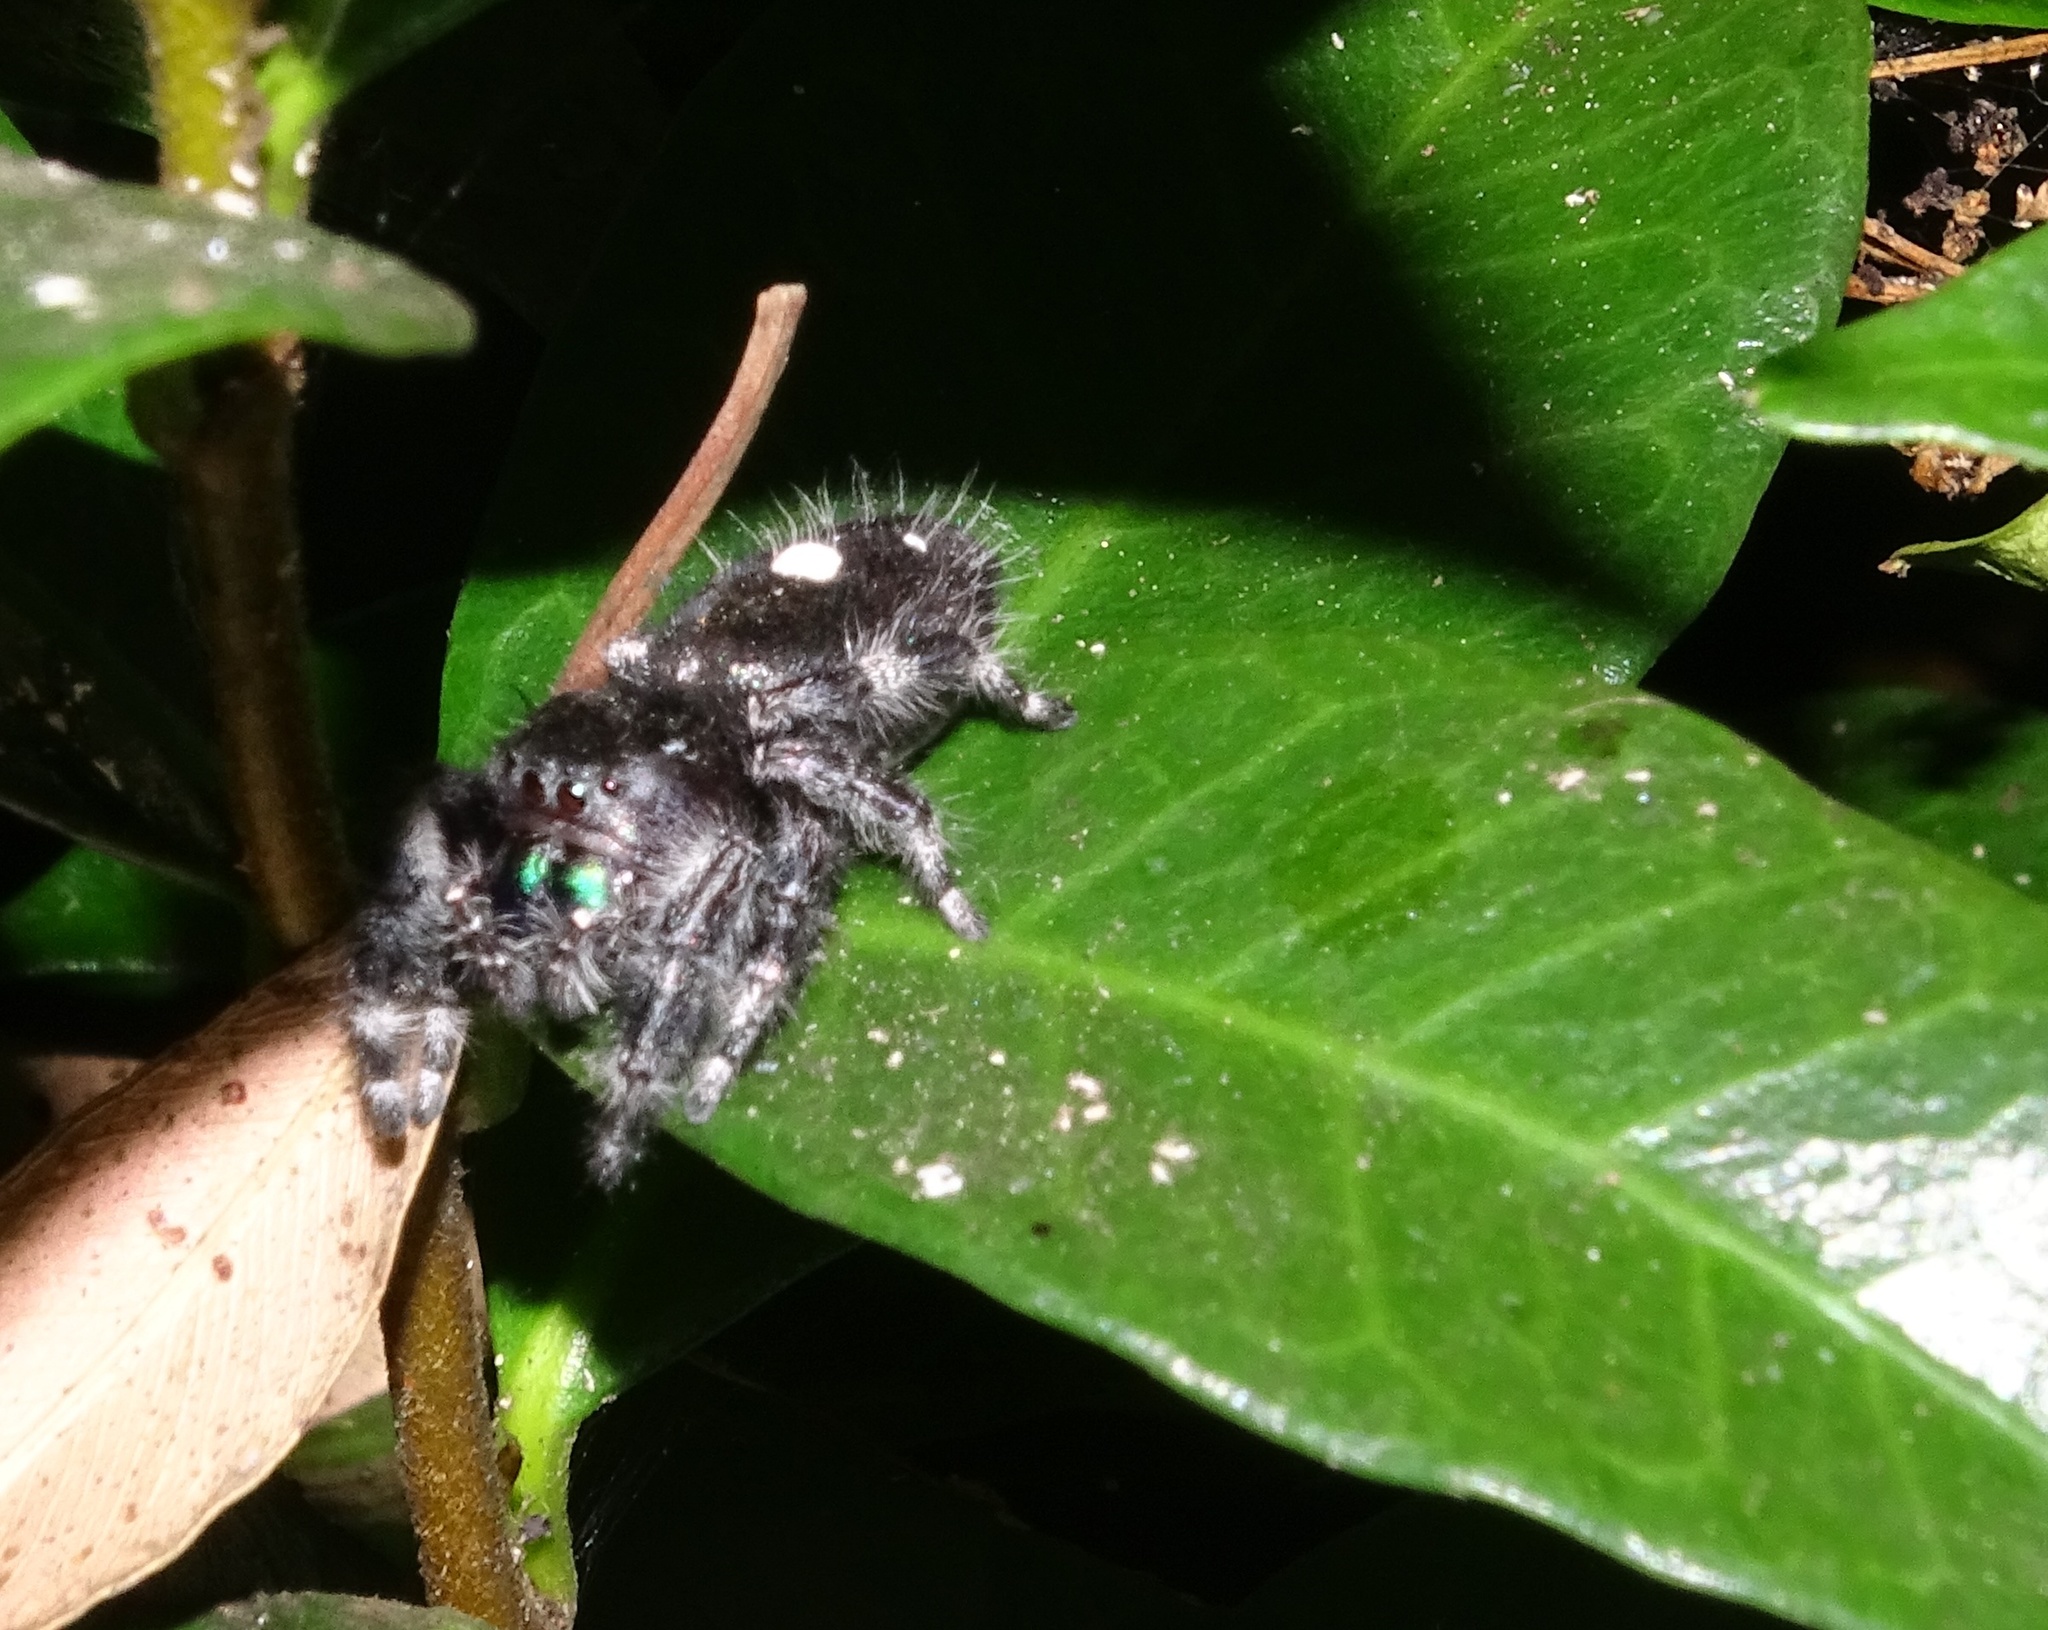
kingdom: Animalia
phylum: Arthropoda
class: Arachnida
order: Araneae
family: Salticidae
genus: Phidippus
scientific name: Phidippus audax
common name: Bold jumper
